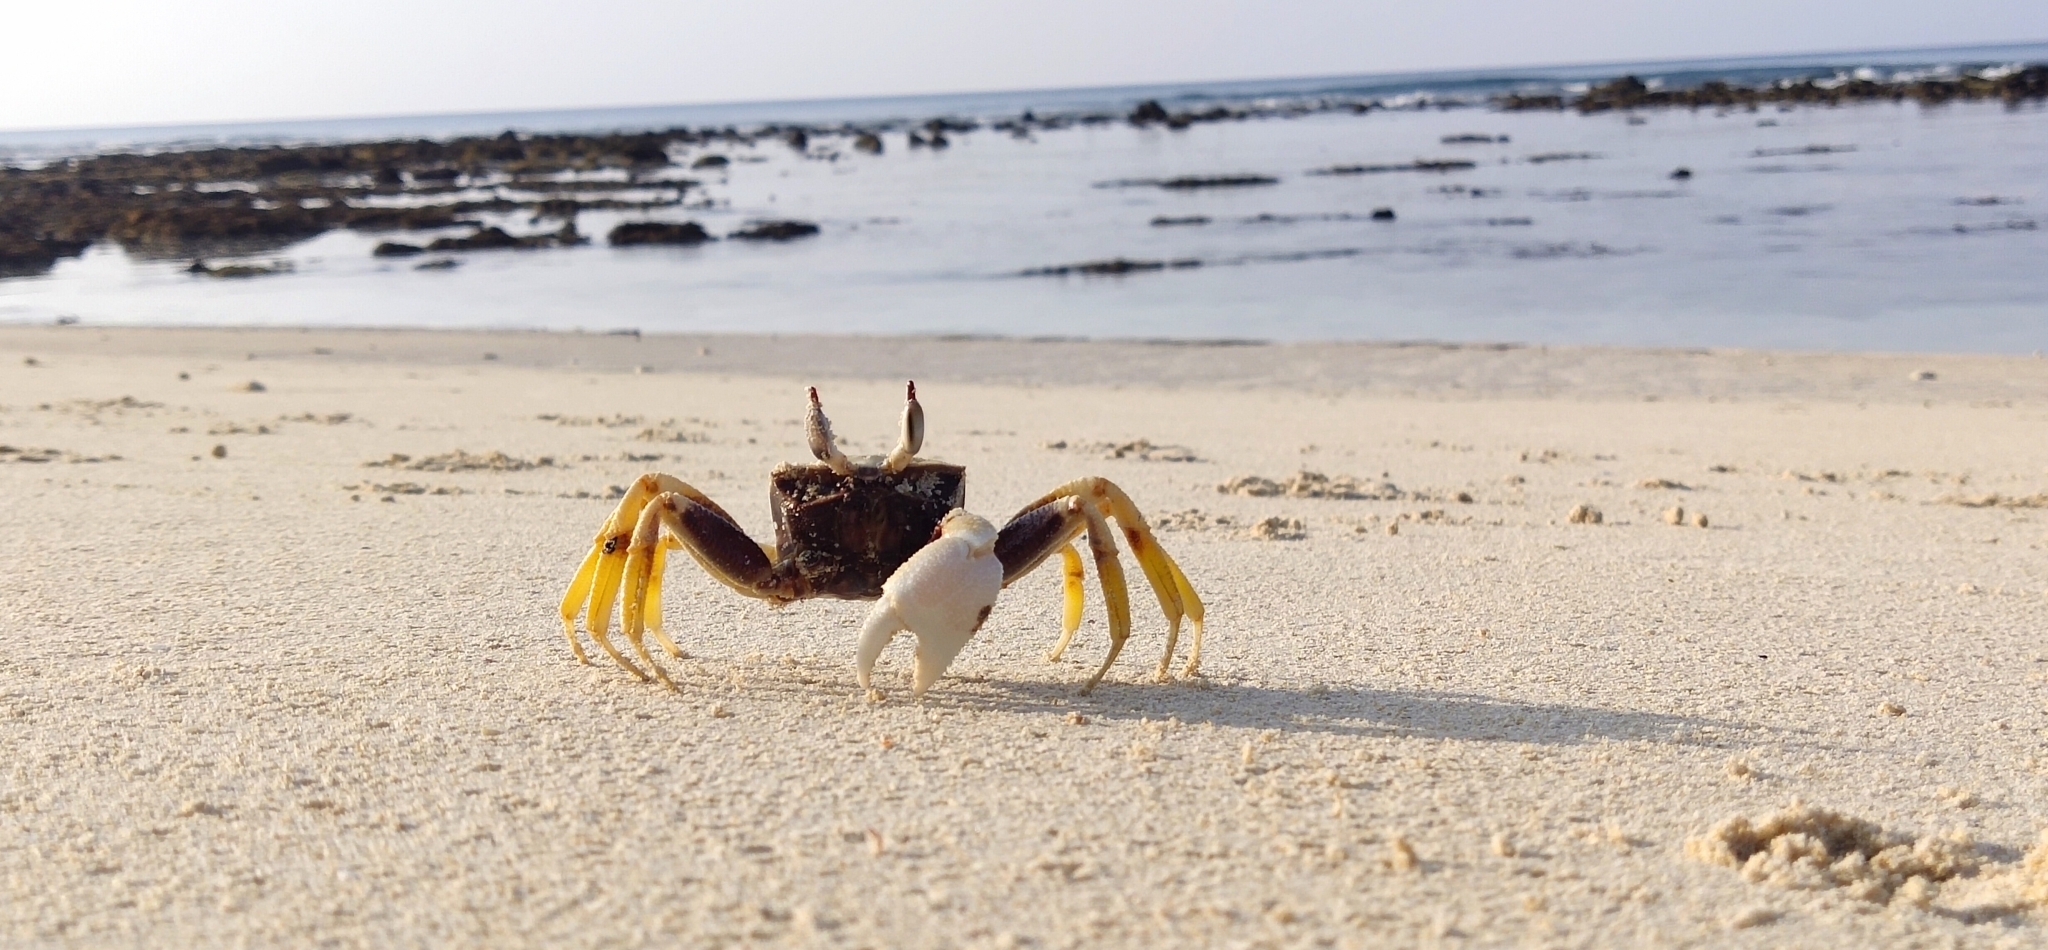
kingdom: Animalia
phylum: Arthropoda
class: Malacostraca
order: Decapoda
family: Ocypodidae
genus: Ocypode
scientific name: Ocypode ceratophthalmus
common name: Indo-pacific ghost crab
